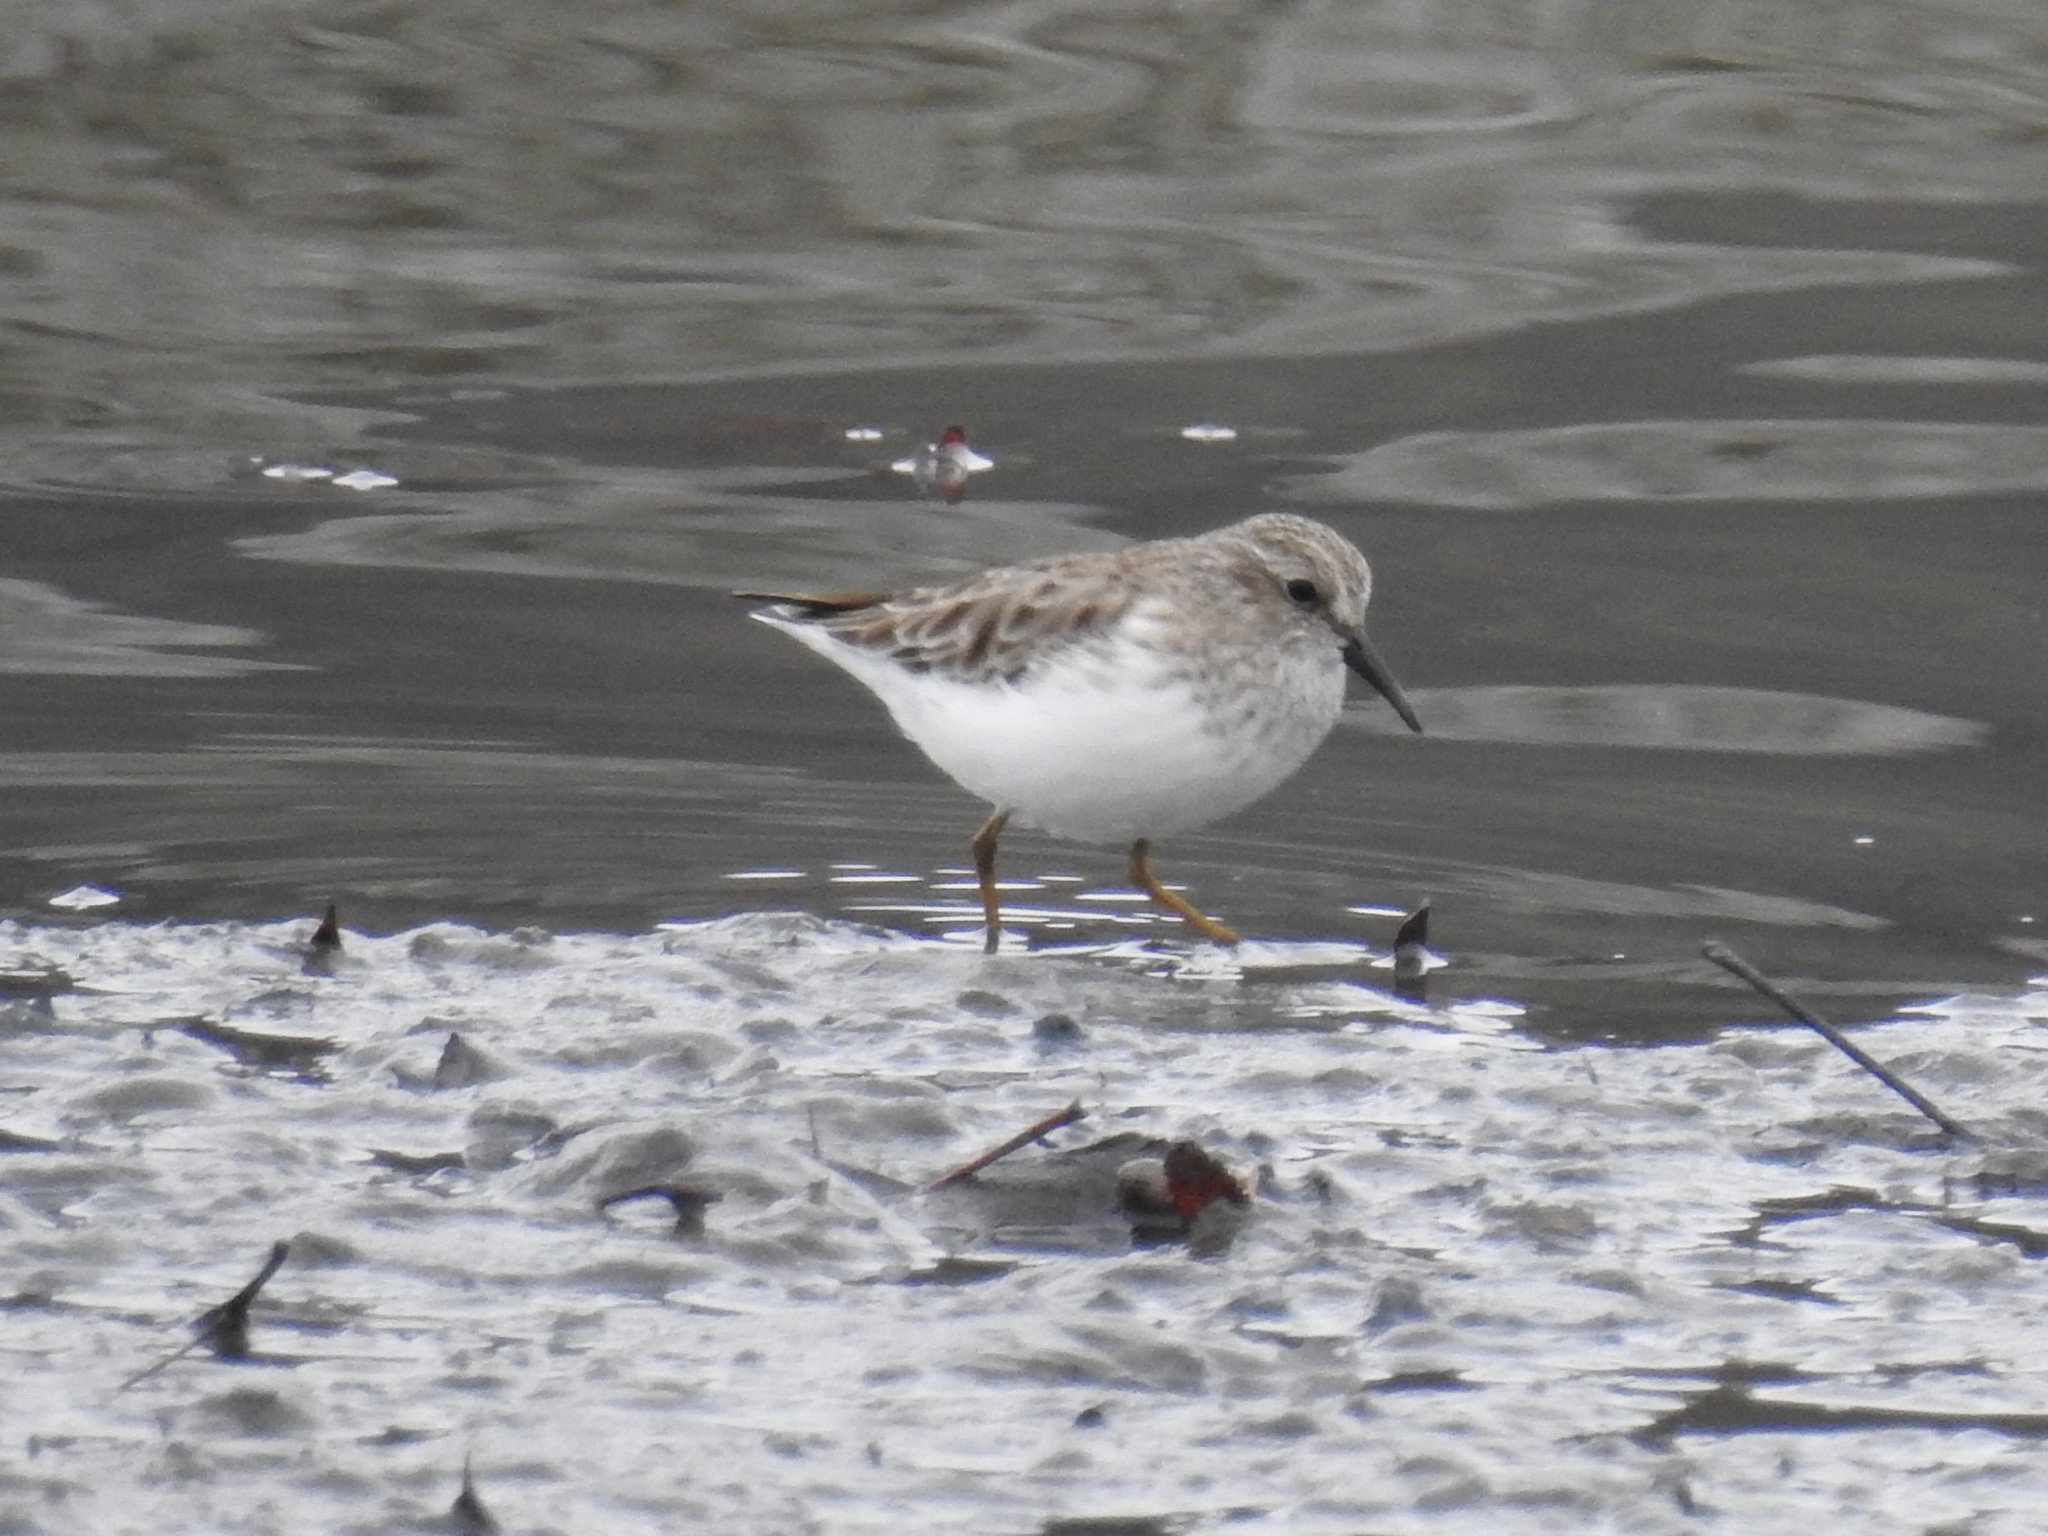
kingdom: Animalia
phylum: Chordata
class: Aves
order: Charadriiformes
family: Scolopacidae
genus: Calidris
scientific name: Calidris minutilla
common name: Least sandpiper
